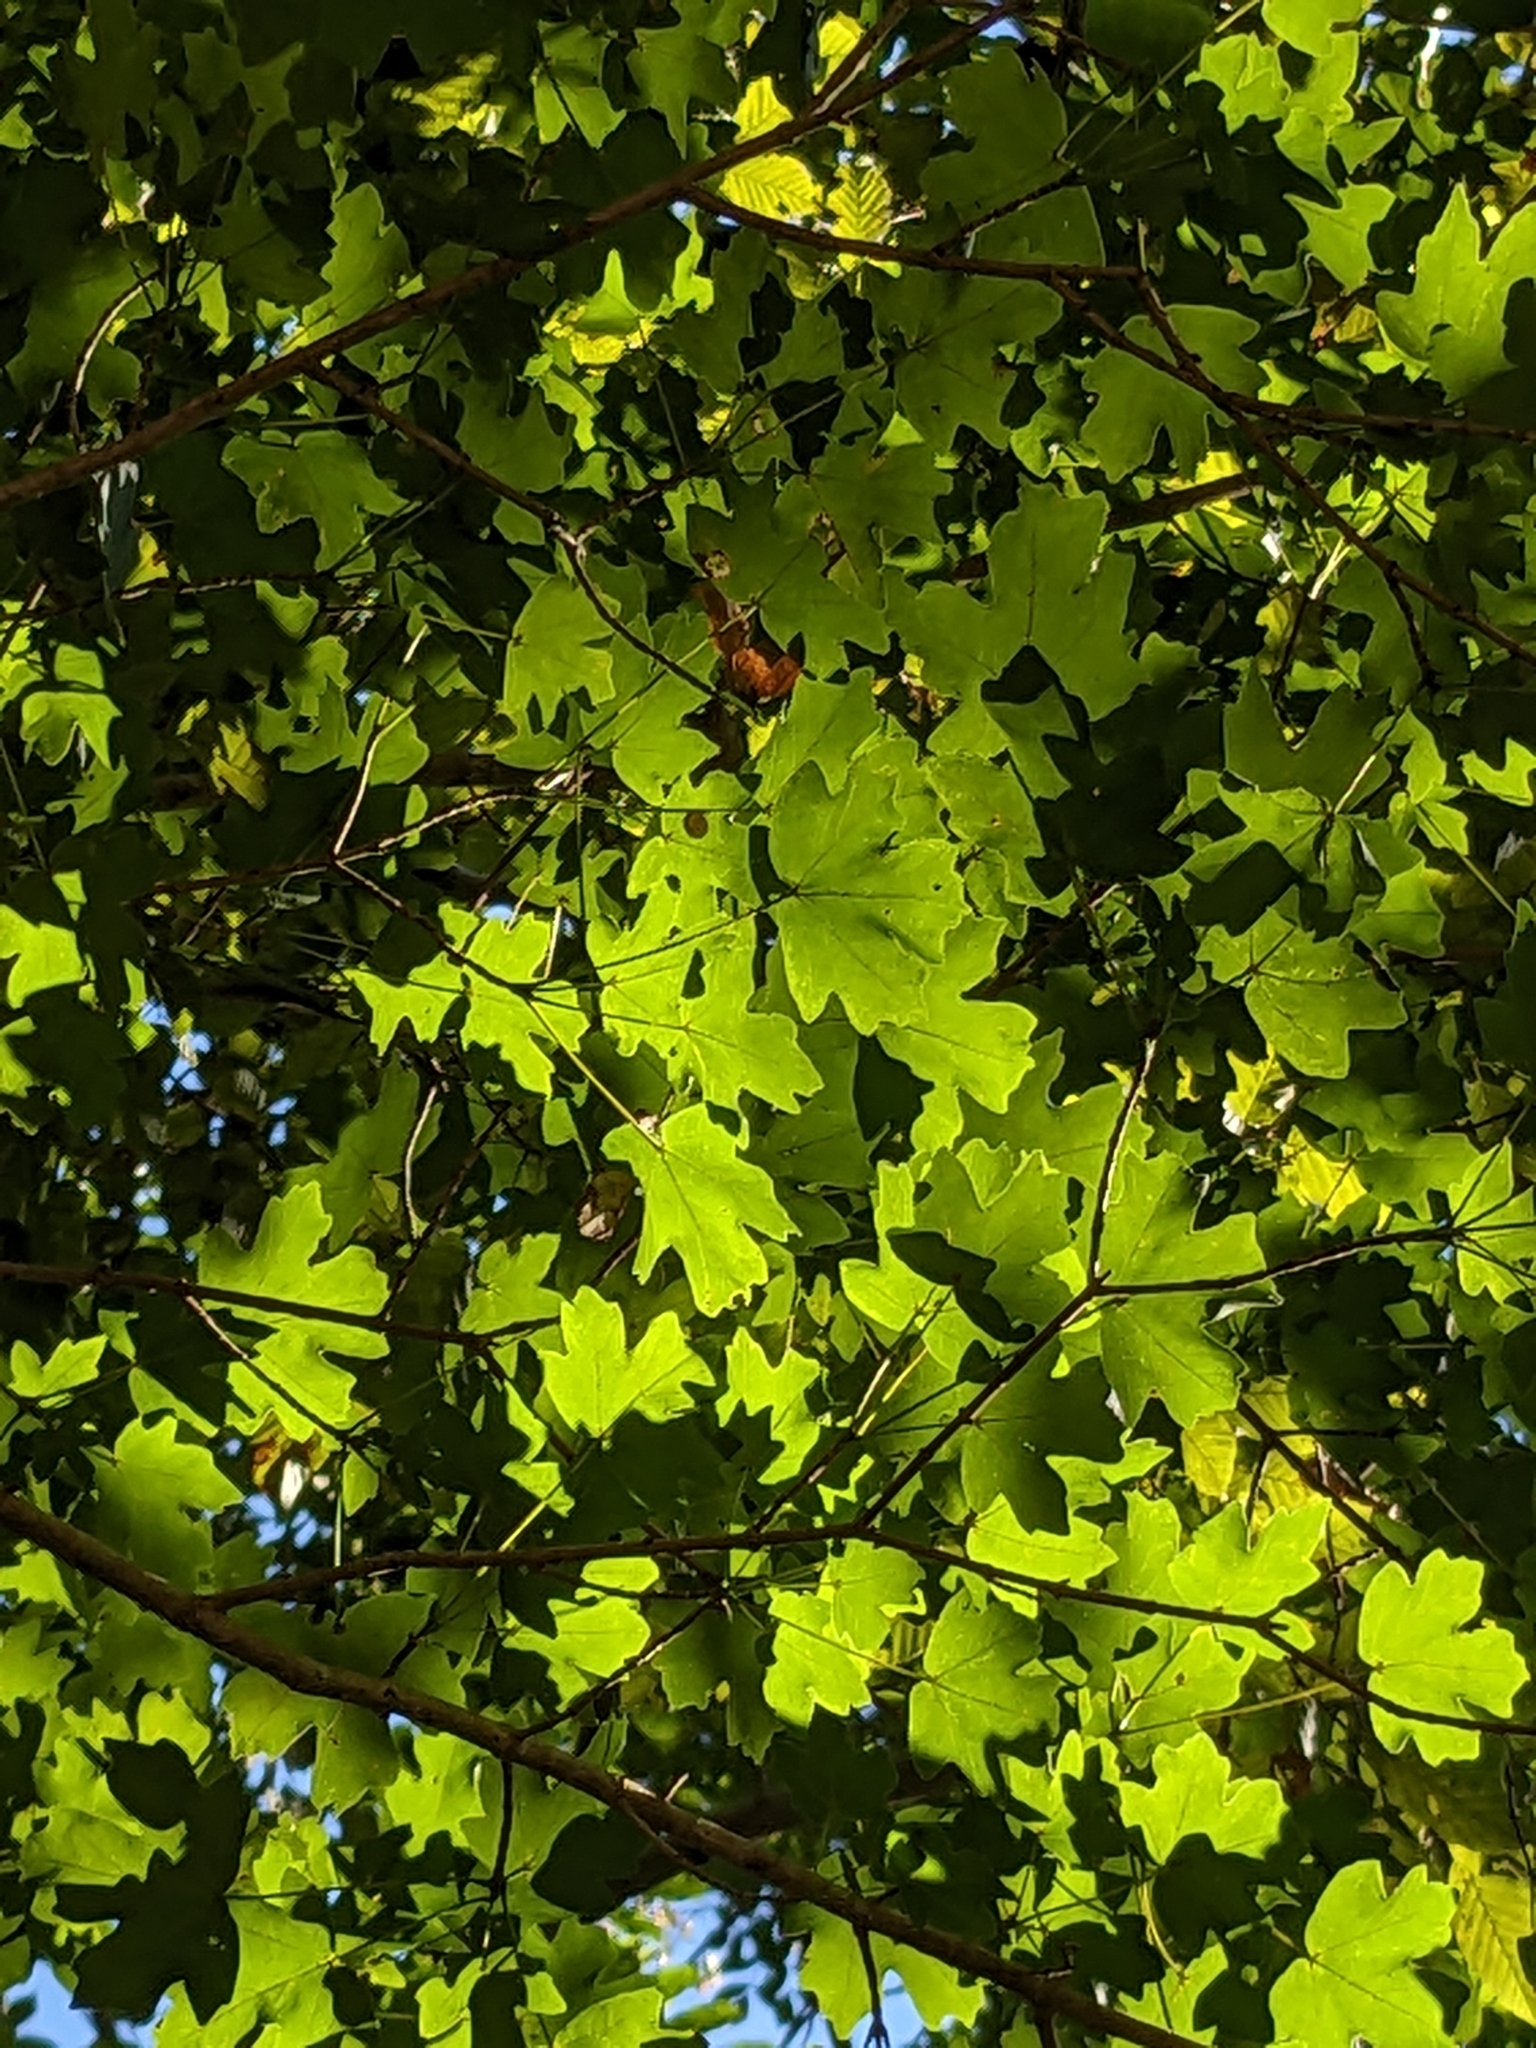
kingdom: Plantae
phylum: Tracheophyta
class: Magnoliopsida
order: Sapindales
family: Sapindaceae
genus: Acer
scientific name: Acer campestre
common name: Field maple
